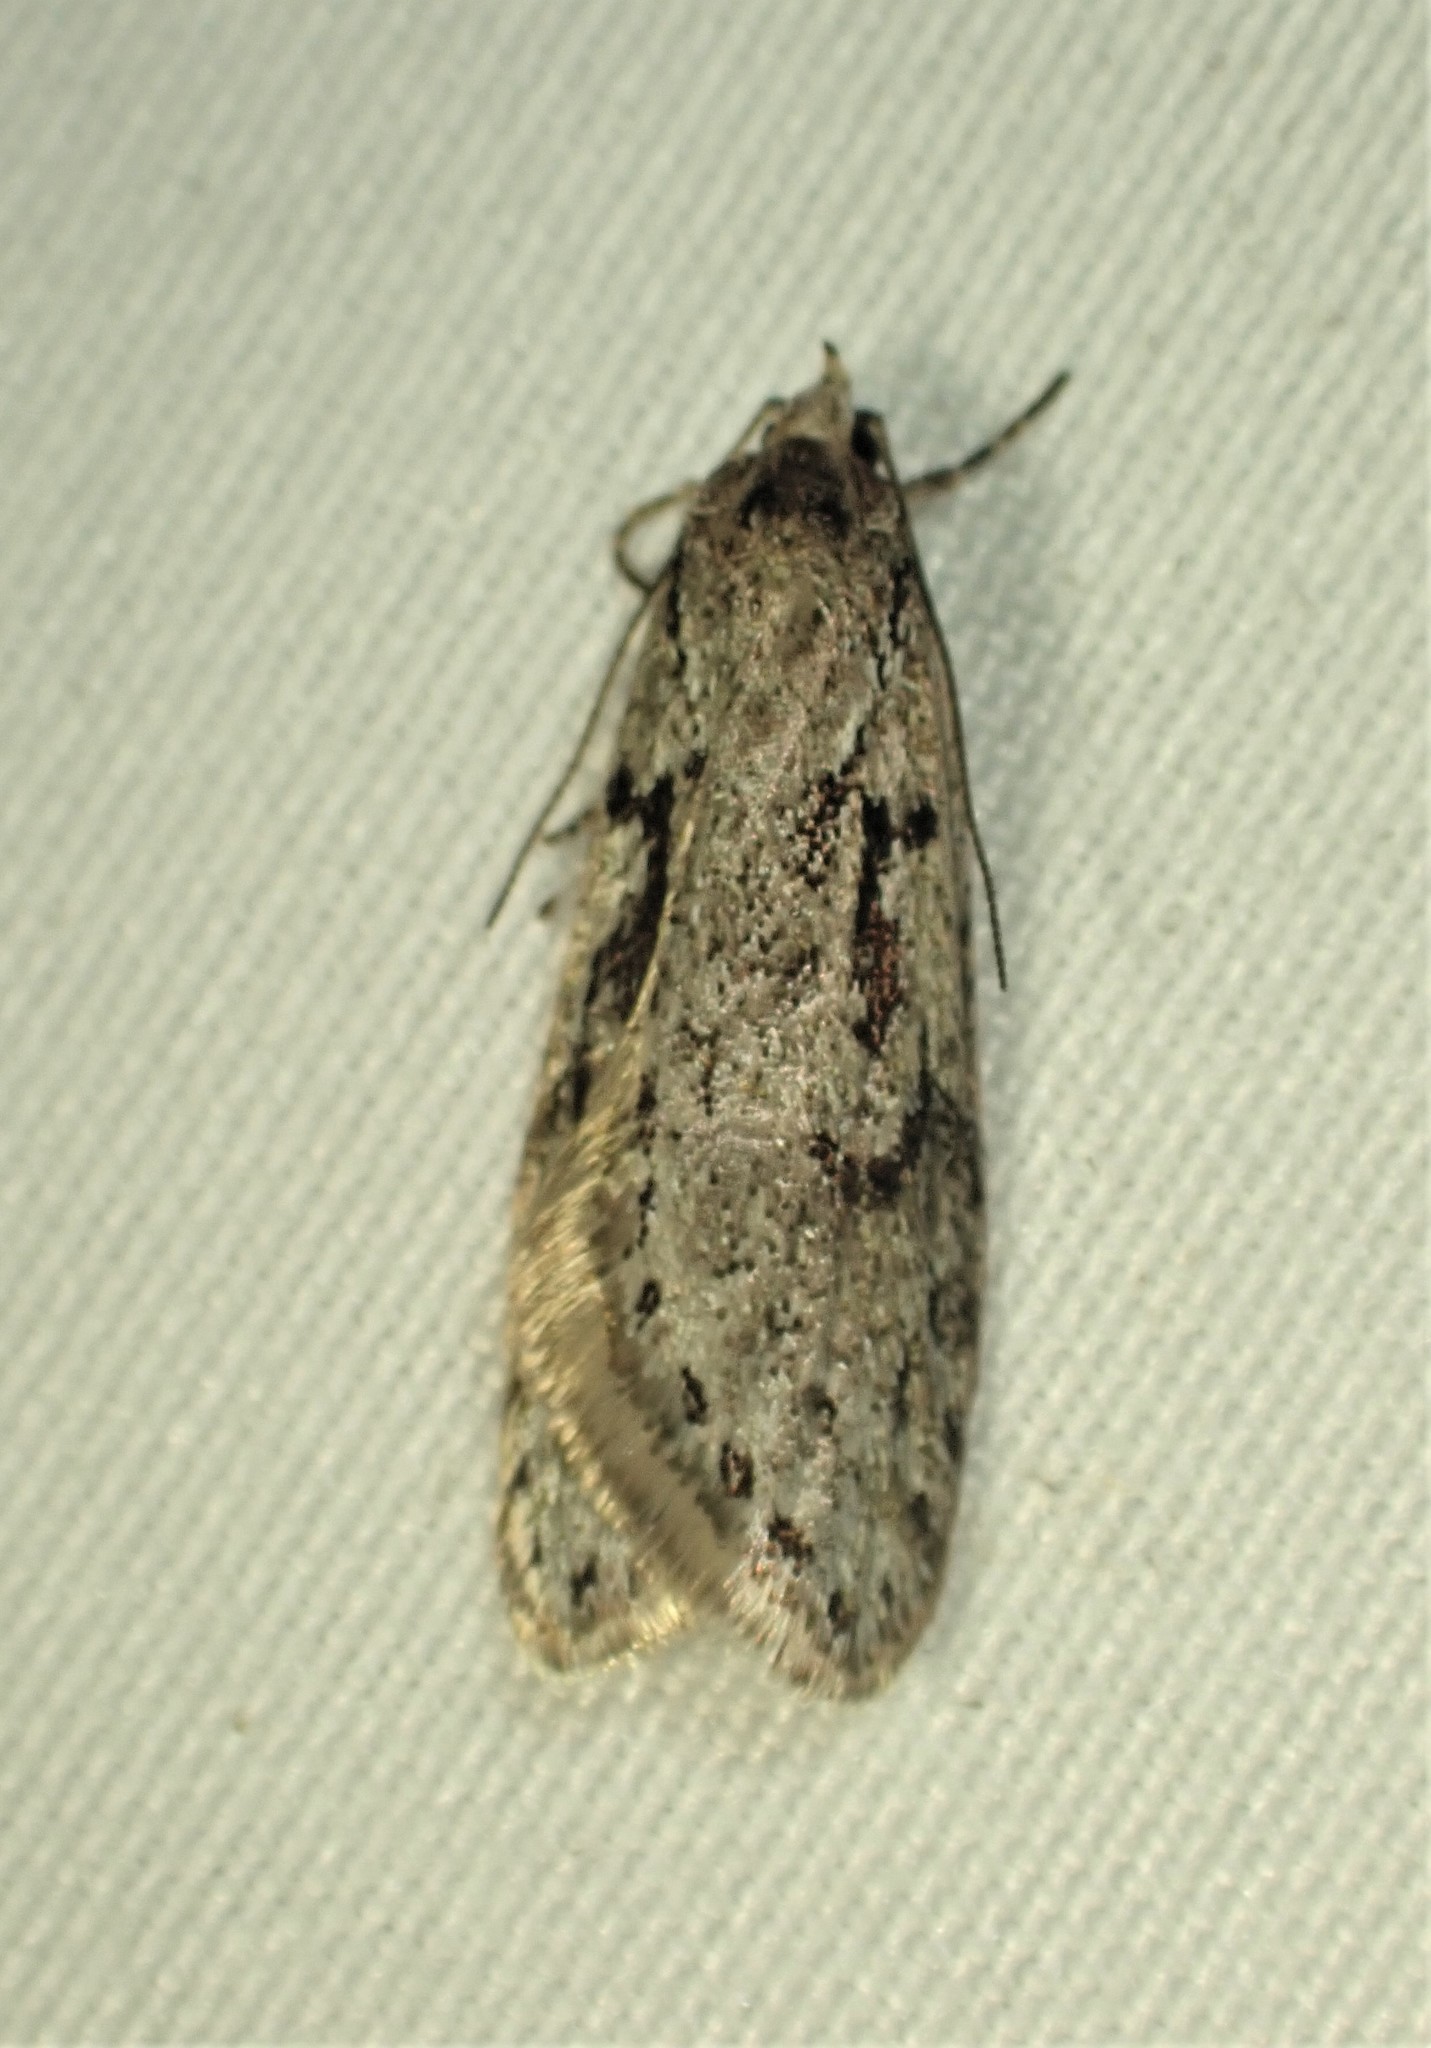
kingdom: Animalia
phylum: Arthropoda
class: Insecta
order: Lepidoptera
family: Depressariidae
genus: Semioscopis
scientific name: Semioscopis aurorella
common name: Aurora flatbody moth
